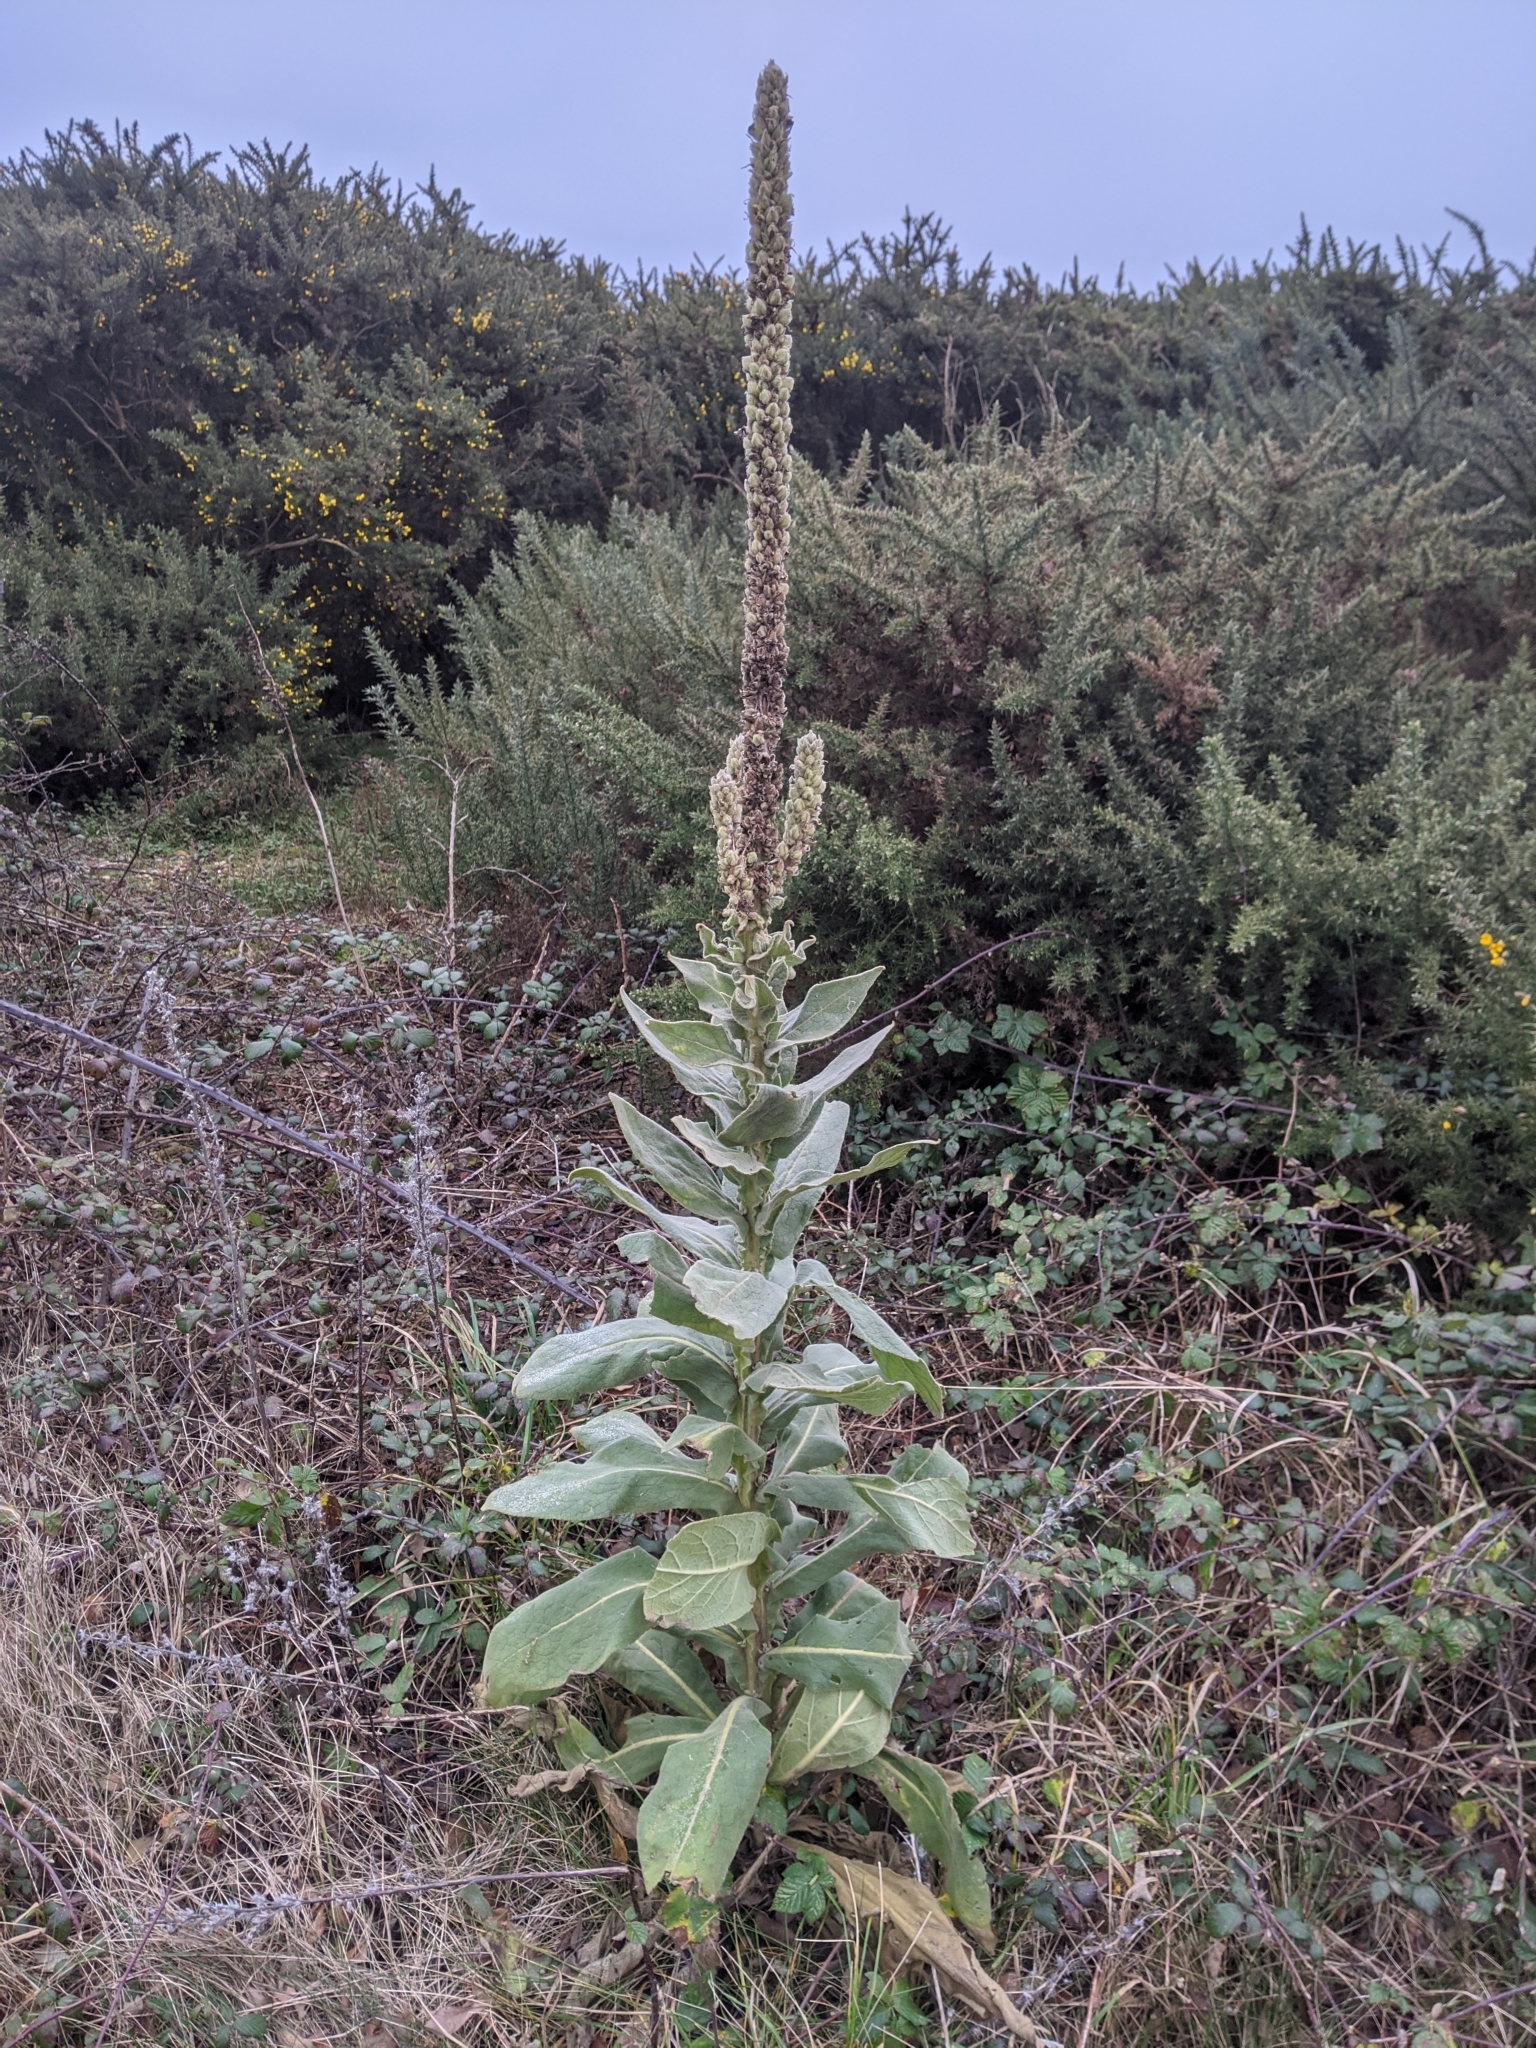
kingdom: Plantae
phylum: Tracheophyta
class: Magnoliopsida
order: Lamiales
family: Scrophulariaceae
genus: Verbascum
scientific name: Verbascum thapsus
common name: Common mullein
